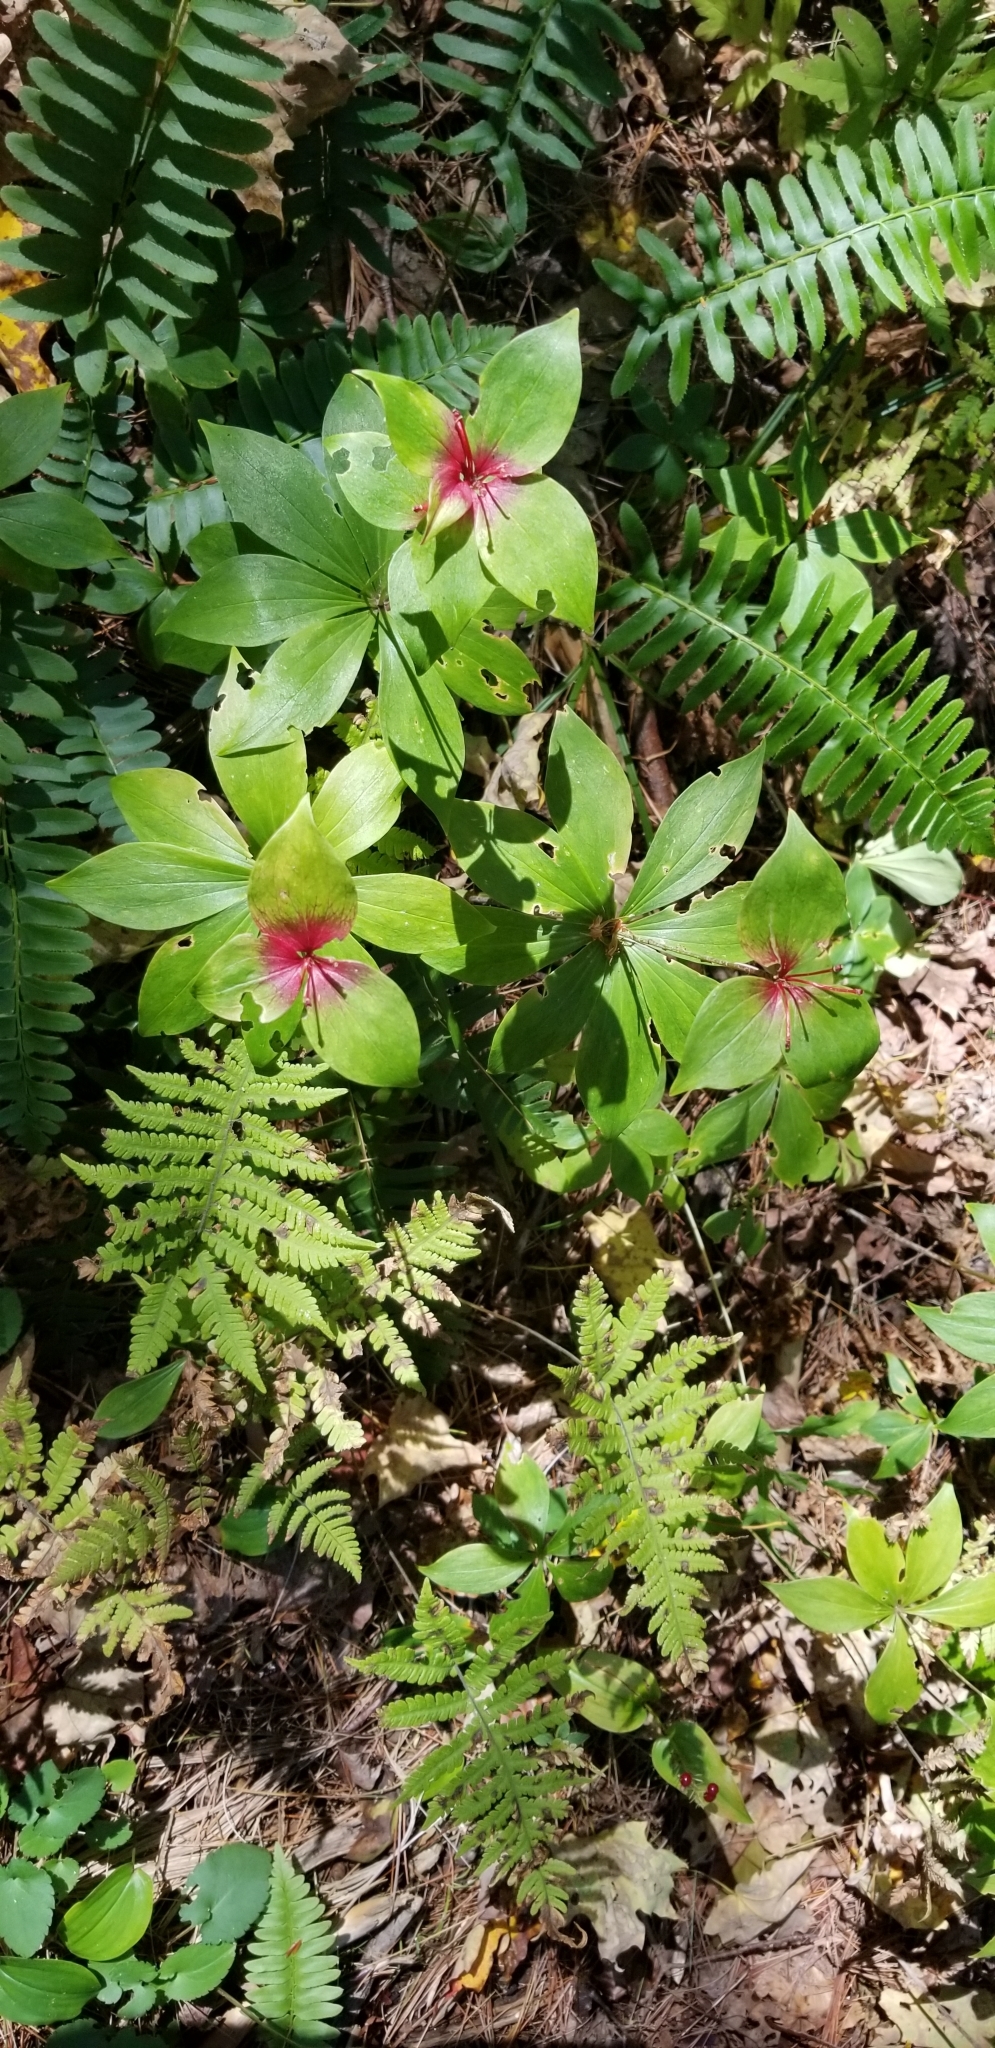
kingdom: Plantae
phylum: Tracheophyta
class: Liliopsida
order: Liliales
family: Liliaceae
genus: Medeola
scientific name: Medeola virginiana
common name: Indian cucumber-root
